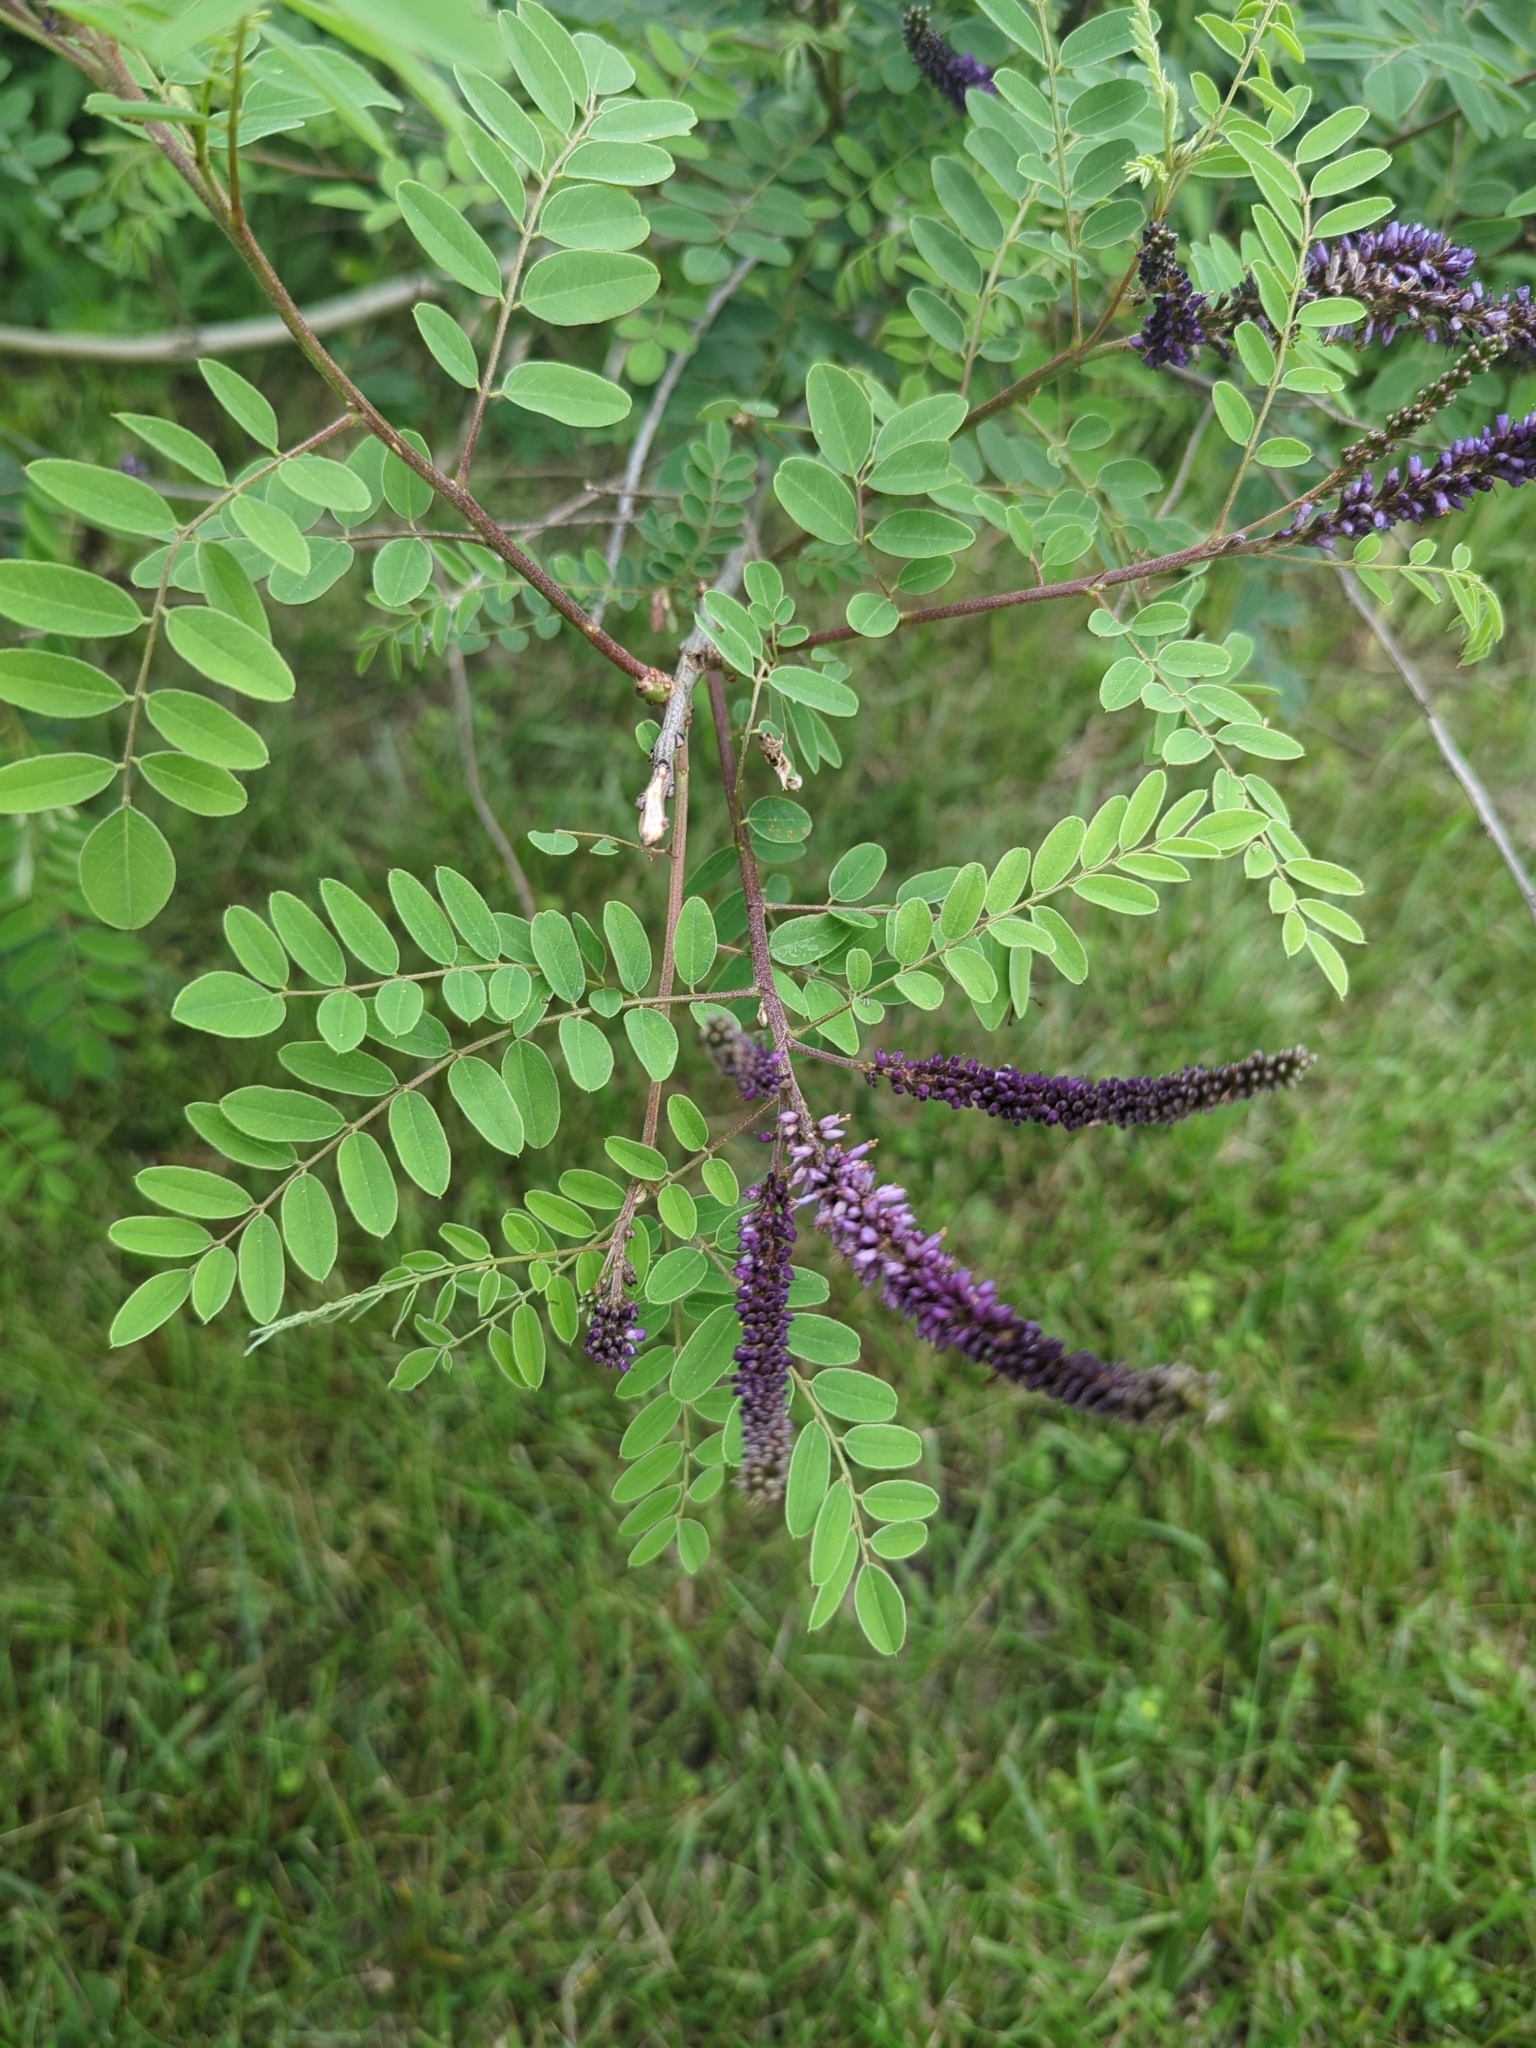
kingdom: Plantae
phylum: Tracheophyta
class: Magnoliopsida
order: Fabales
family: Fabaceae
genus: Amorpha
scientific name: Amorpha fruticosa
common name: False indigo
